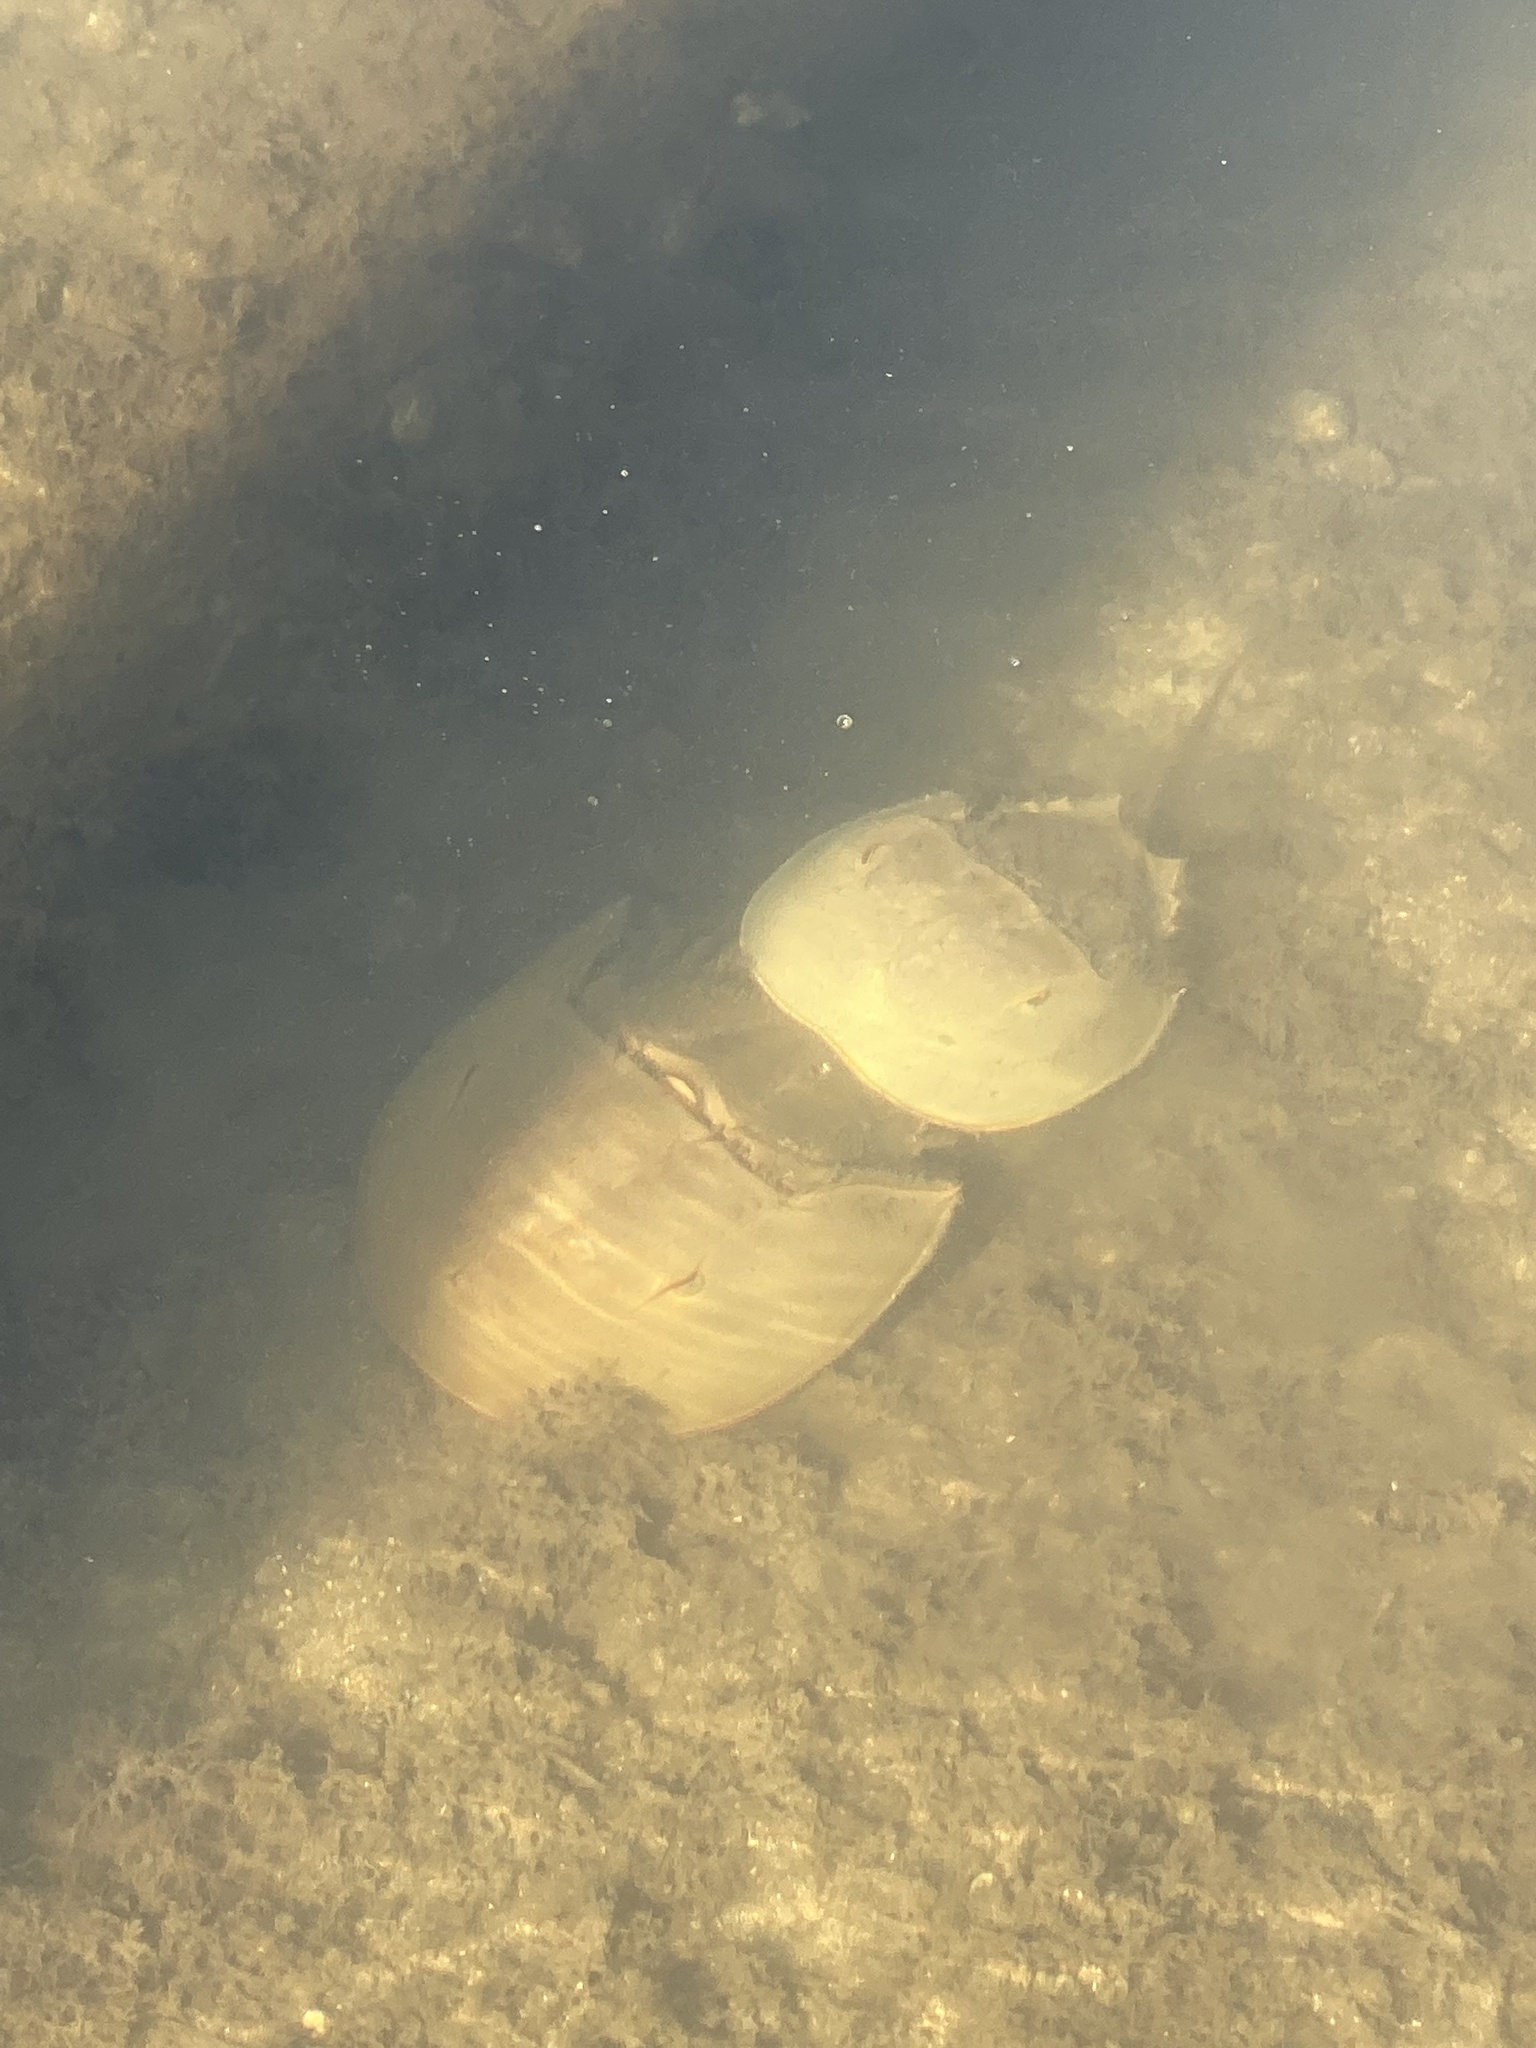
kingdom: Animalia
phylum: Arthropoda
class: Merostomata
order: Xiphosurida
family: Limulidae
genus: Limulus
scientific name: Limulus polyphemus
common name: Horseshoe crab
